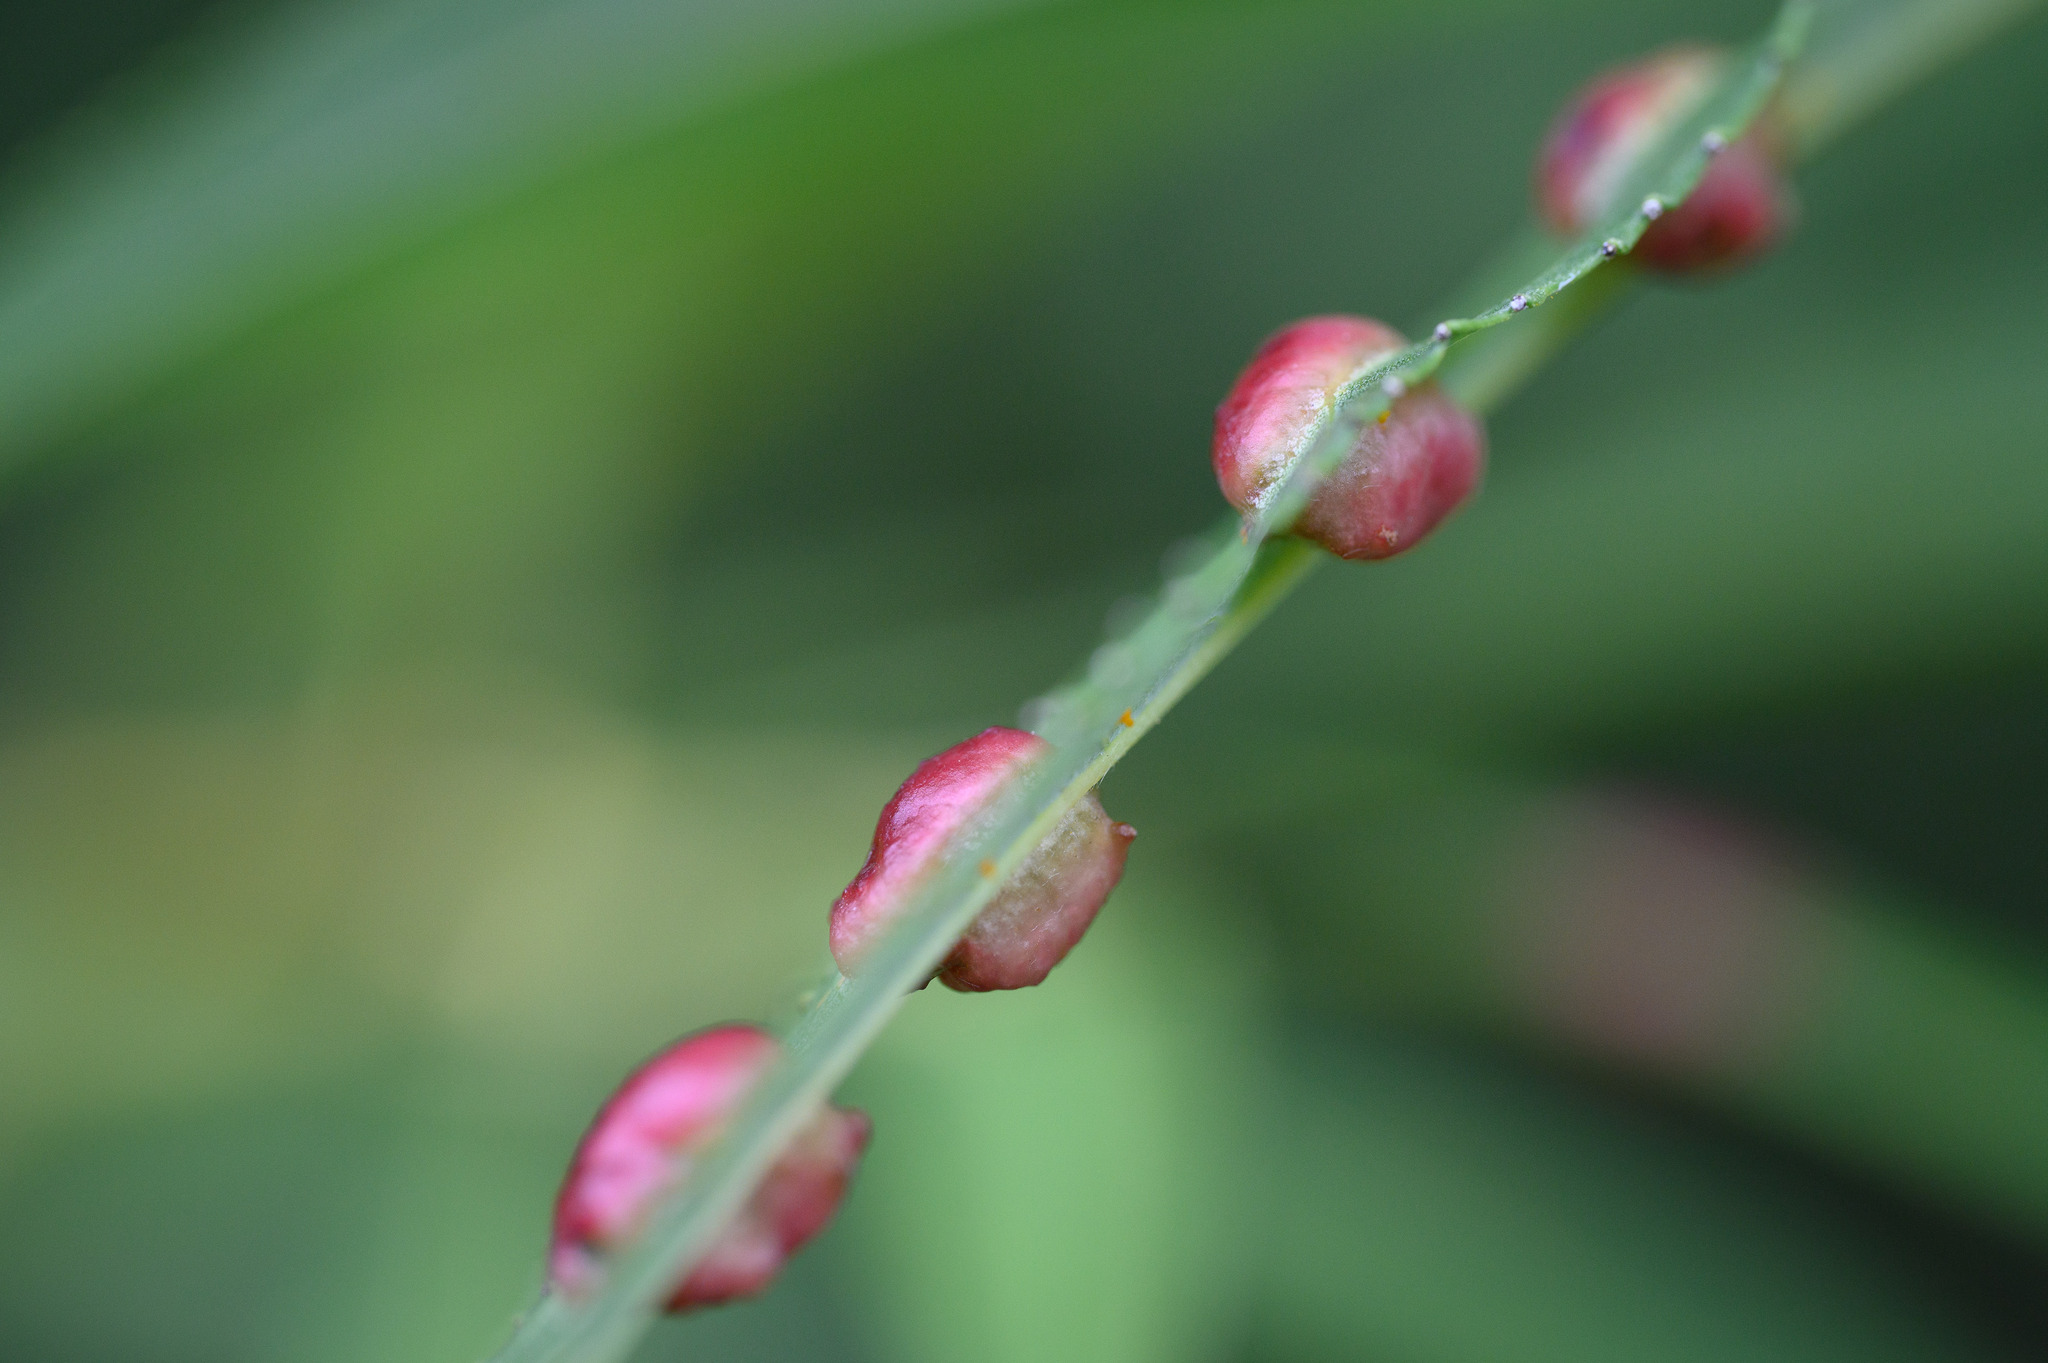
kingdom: Animalia
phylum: Arthropoda
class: Insecta
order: Hymenoptera
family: Tenthredinidae
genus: Pontania
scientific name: Pontania proxima
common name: Common sawfly
